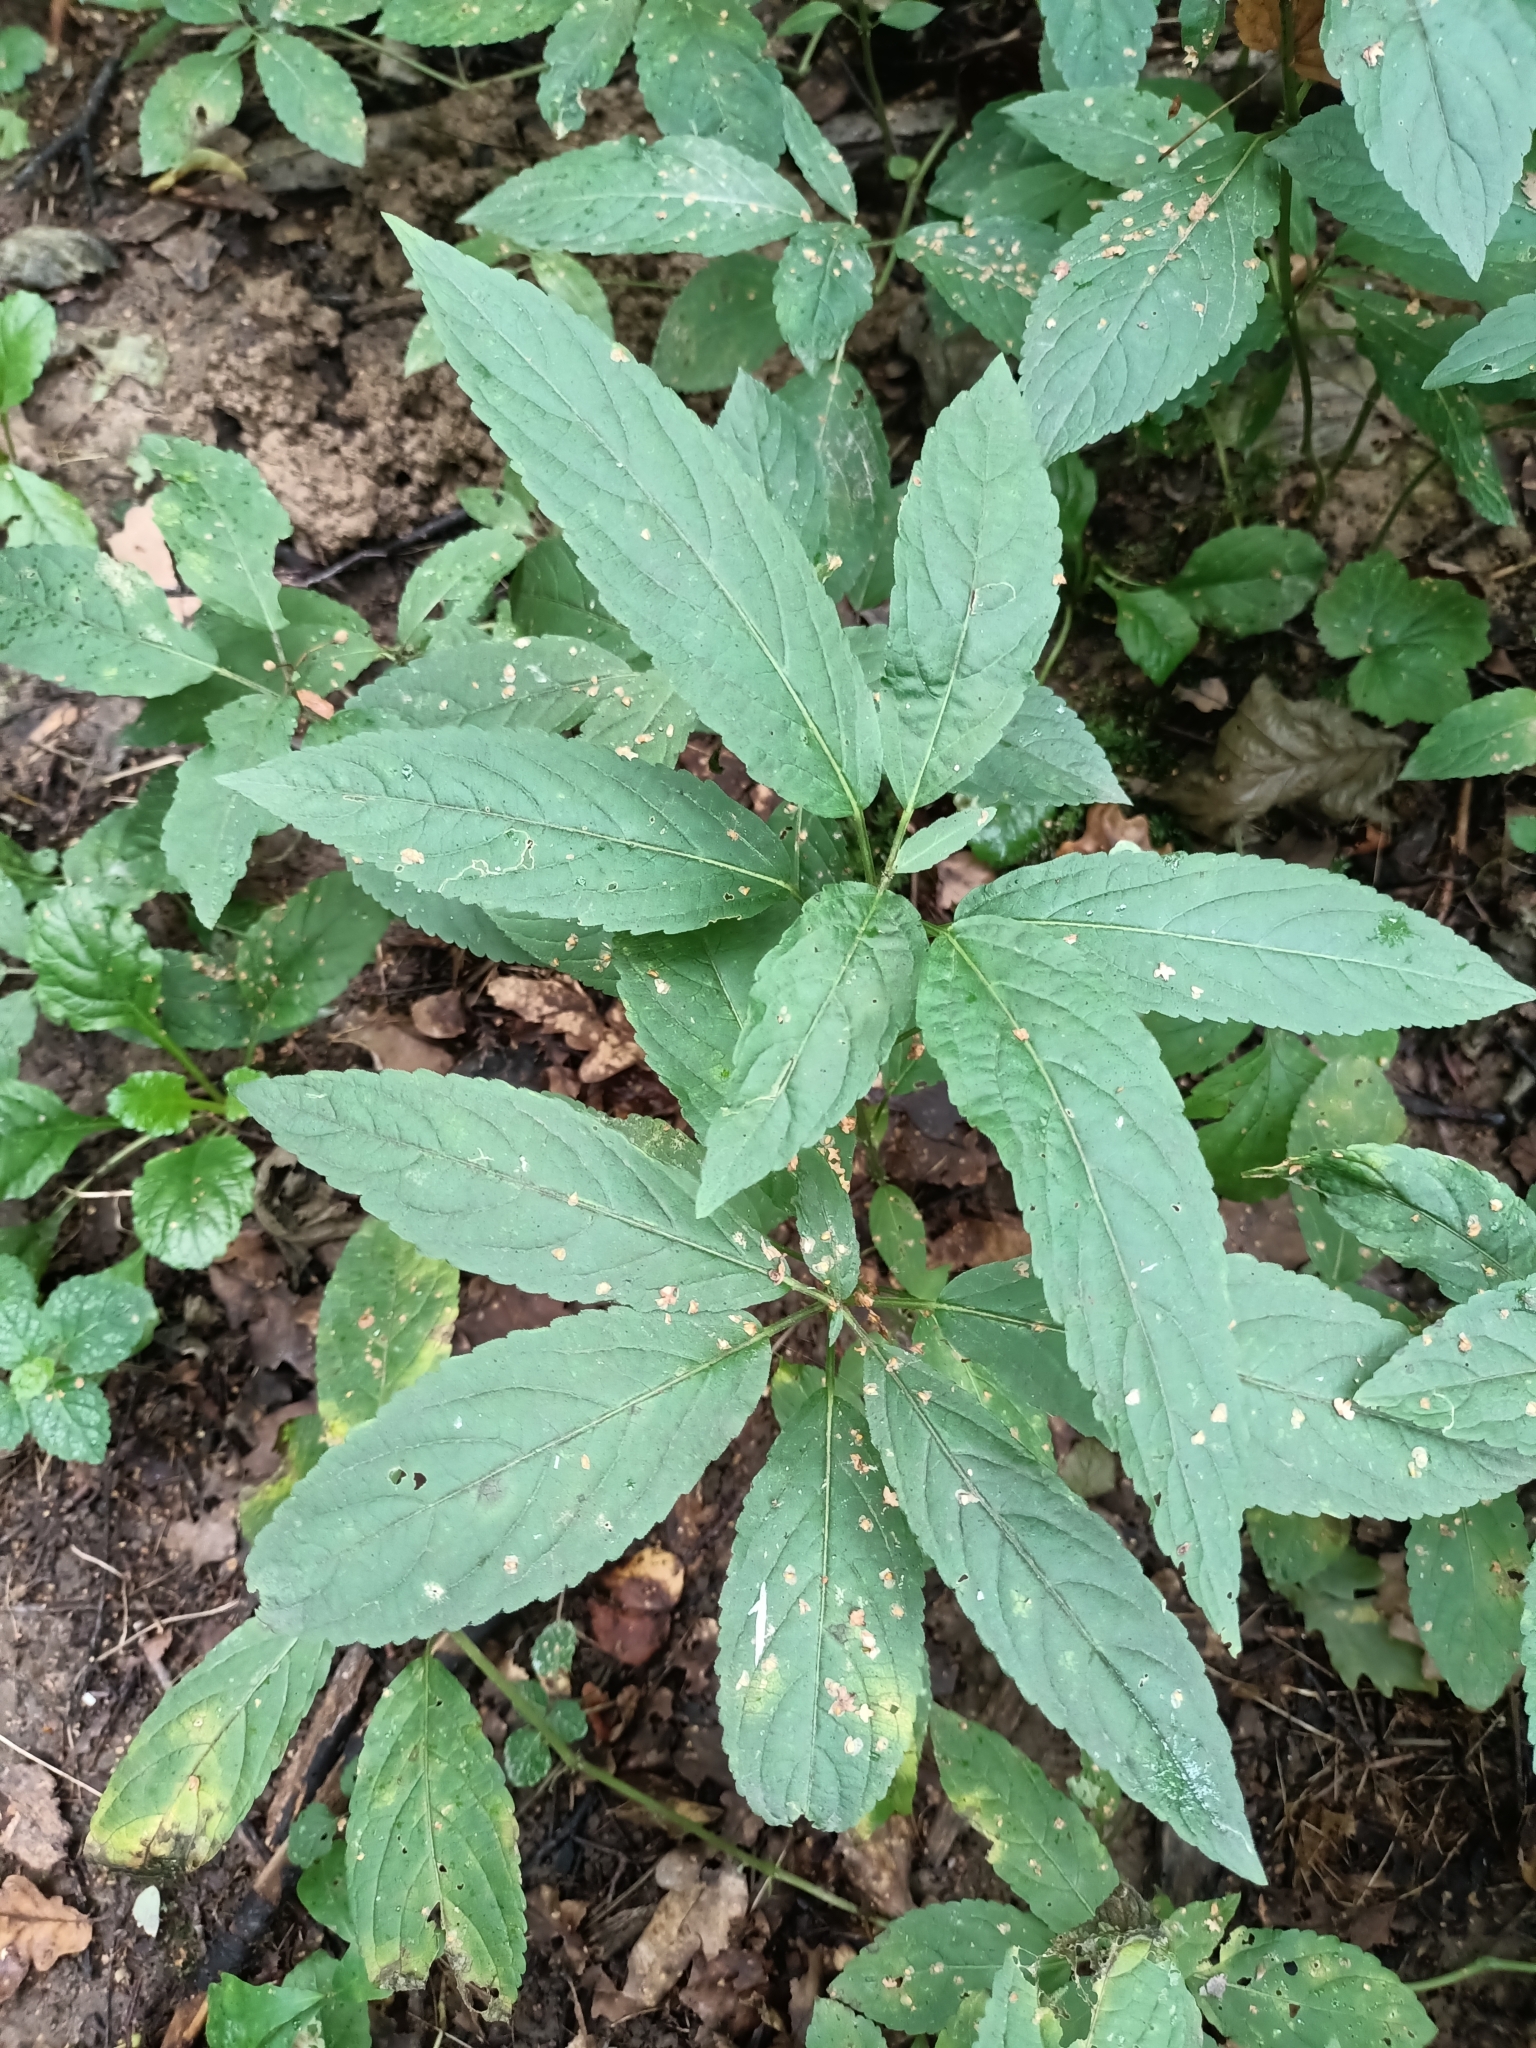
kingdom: Plantae
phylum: Tracheophyta
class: Magnoliopsida
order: Malpighiales
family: Euphorbiaceae
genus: Mercurialis
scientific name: Mercurialis perennis
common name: Dog mercury
